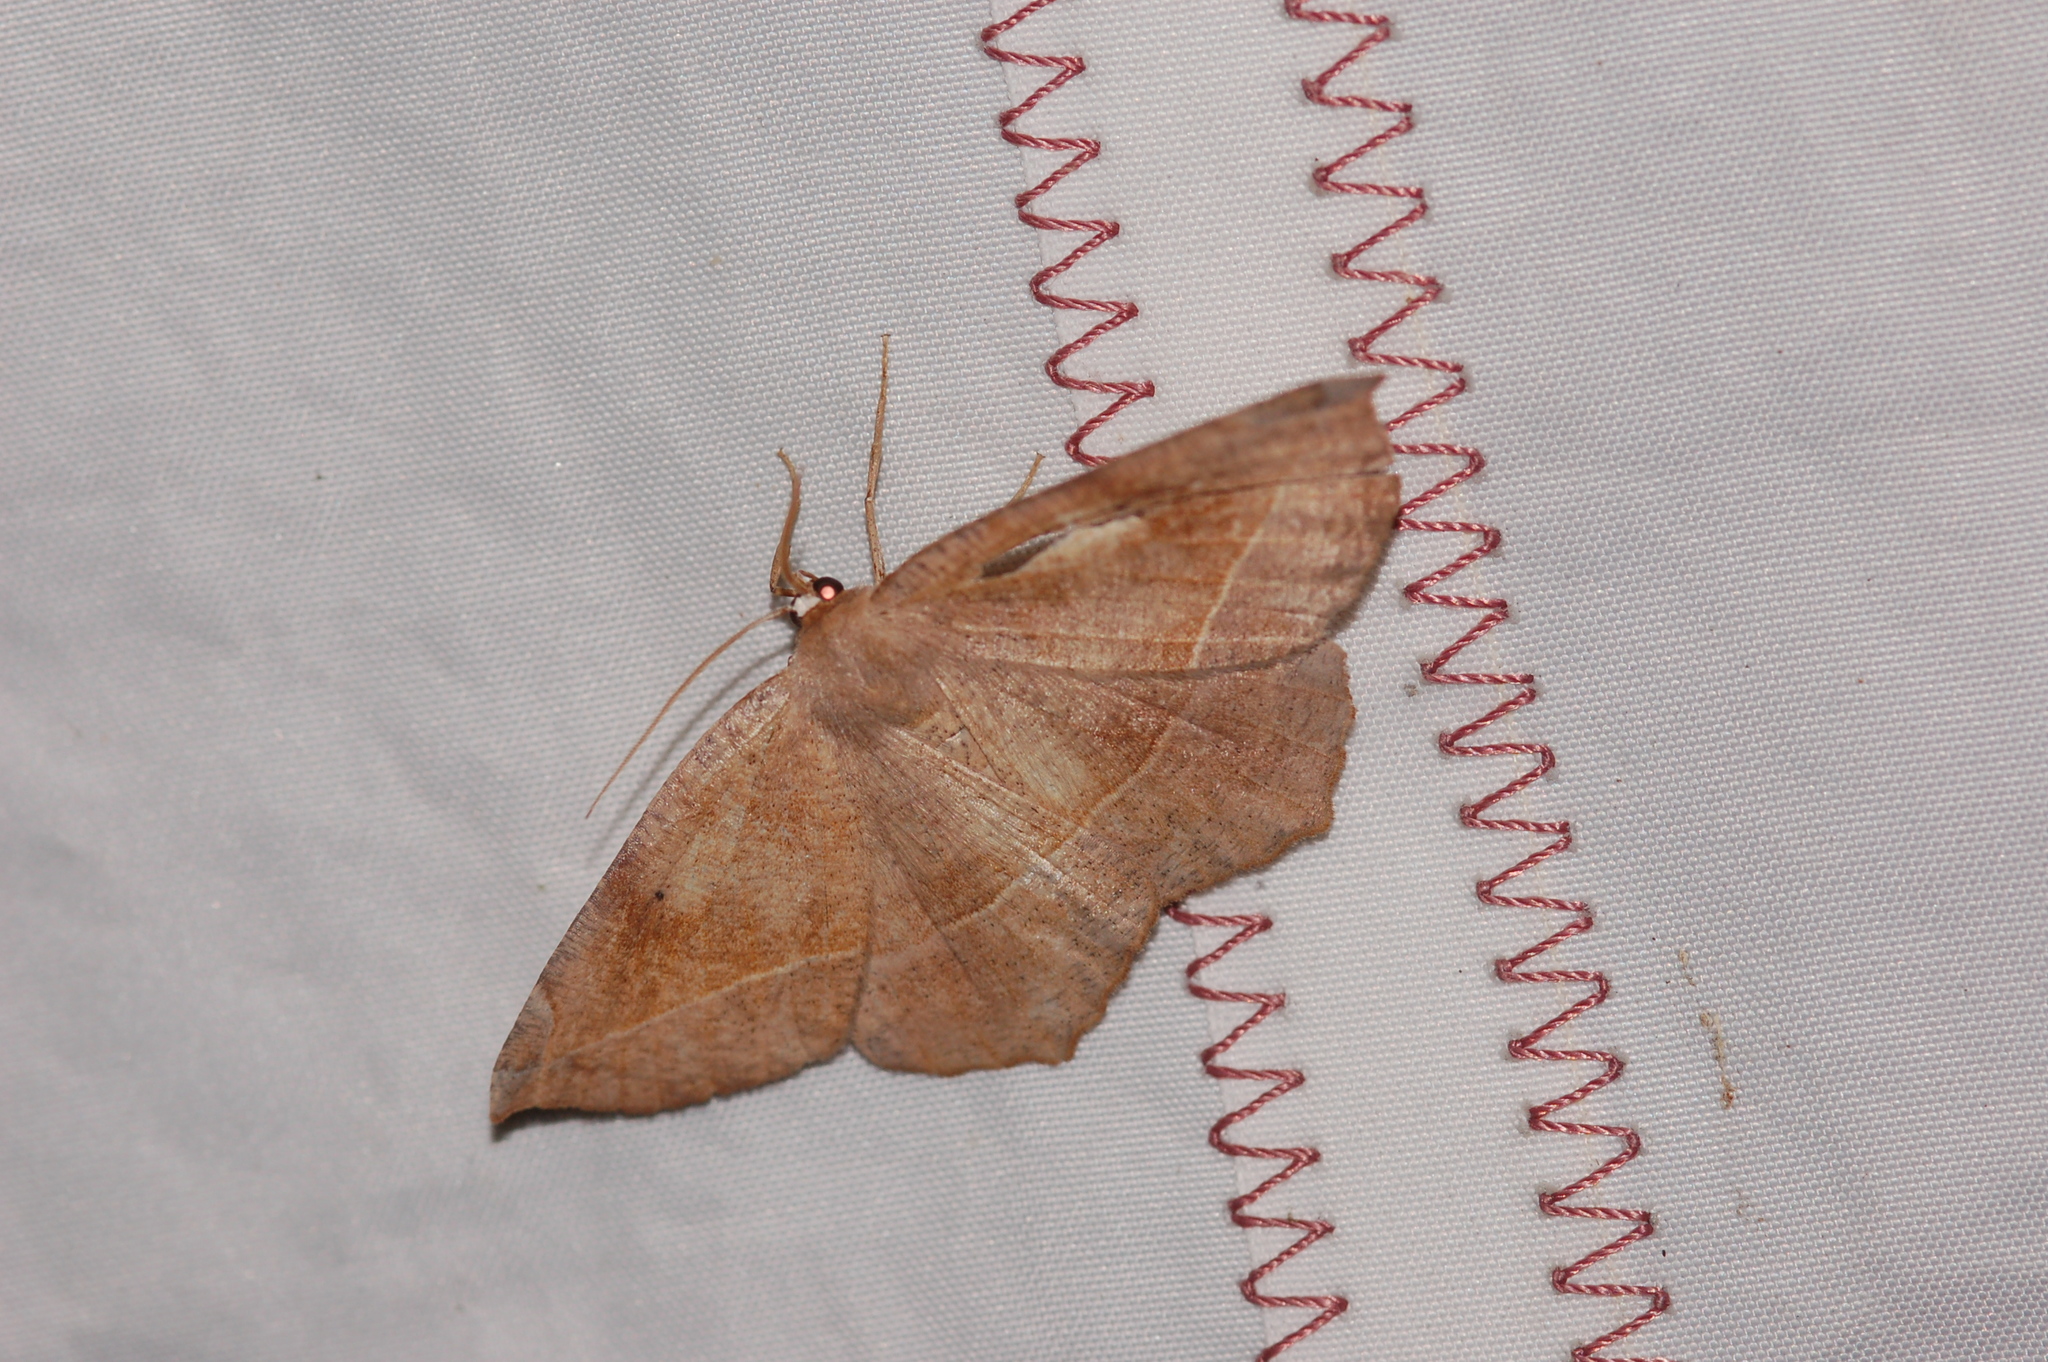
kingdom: Animalia
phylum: Arthropoda
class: Insecta
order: Lepidoptera
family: Geometridae
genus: Eutrapela
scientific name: Eutrapela clemataria
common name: Curved-toothed geometer
